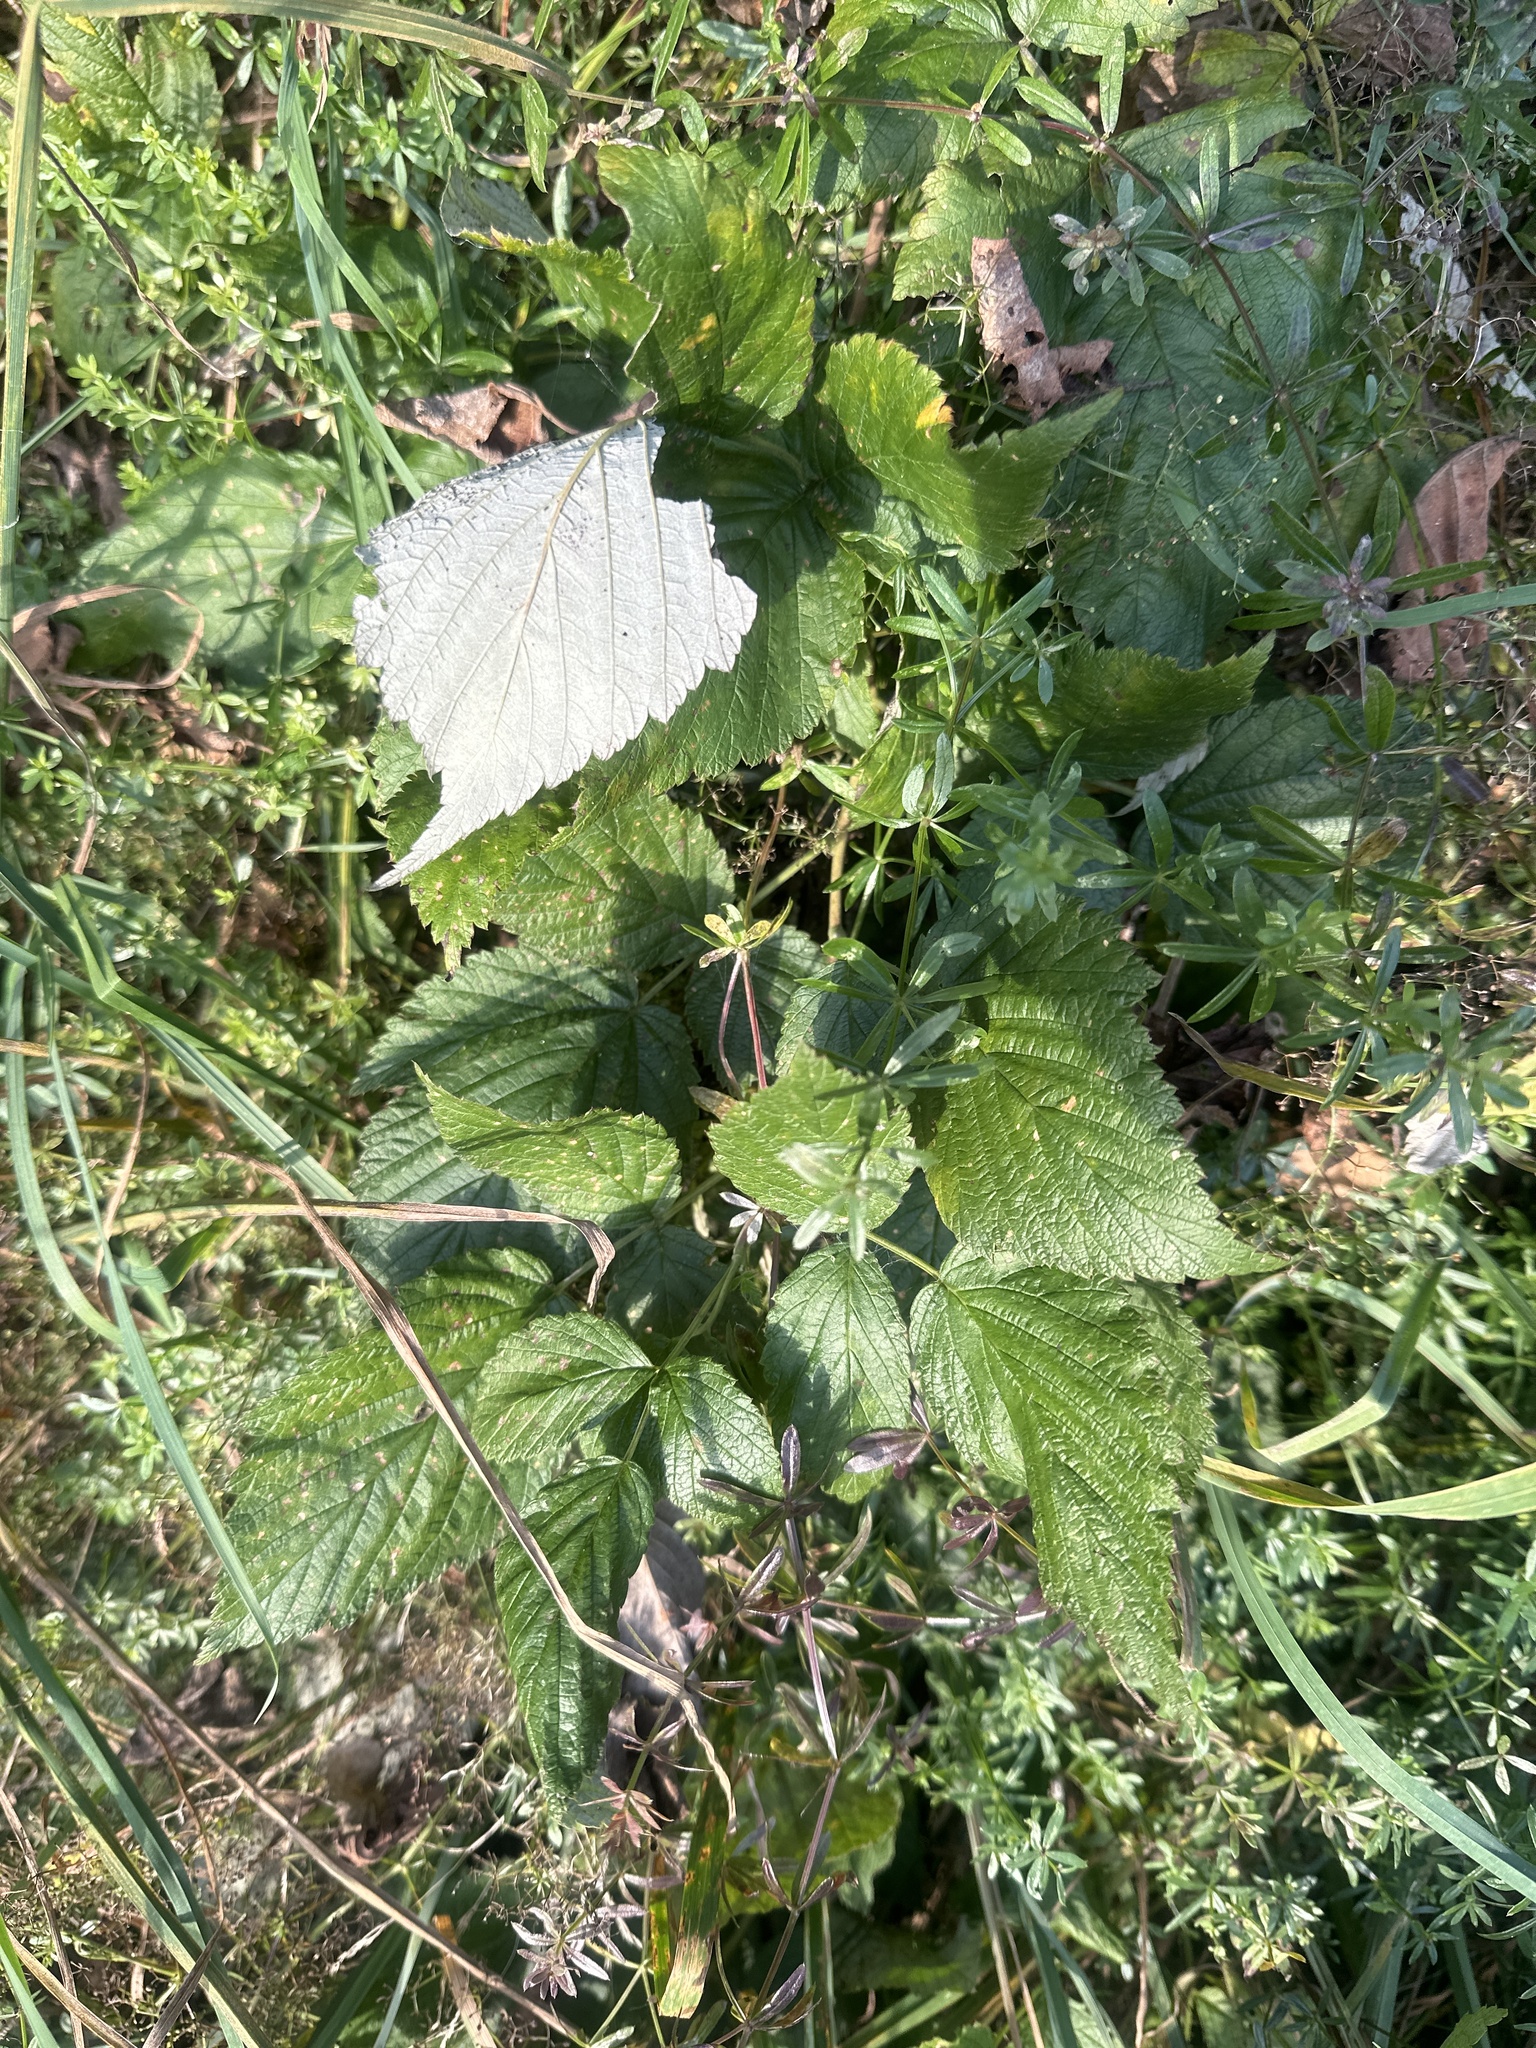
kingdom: Plantae
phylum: Tracheophyta
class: Magnoliopsida
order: Rosales
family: Rosaceae
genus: Rubus
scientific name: Rubus idaeus
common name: Raspberry
